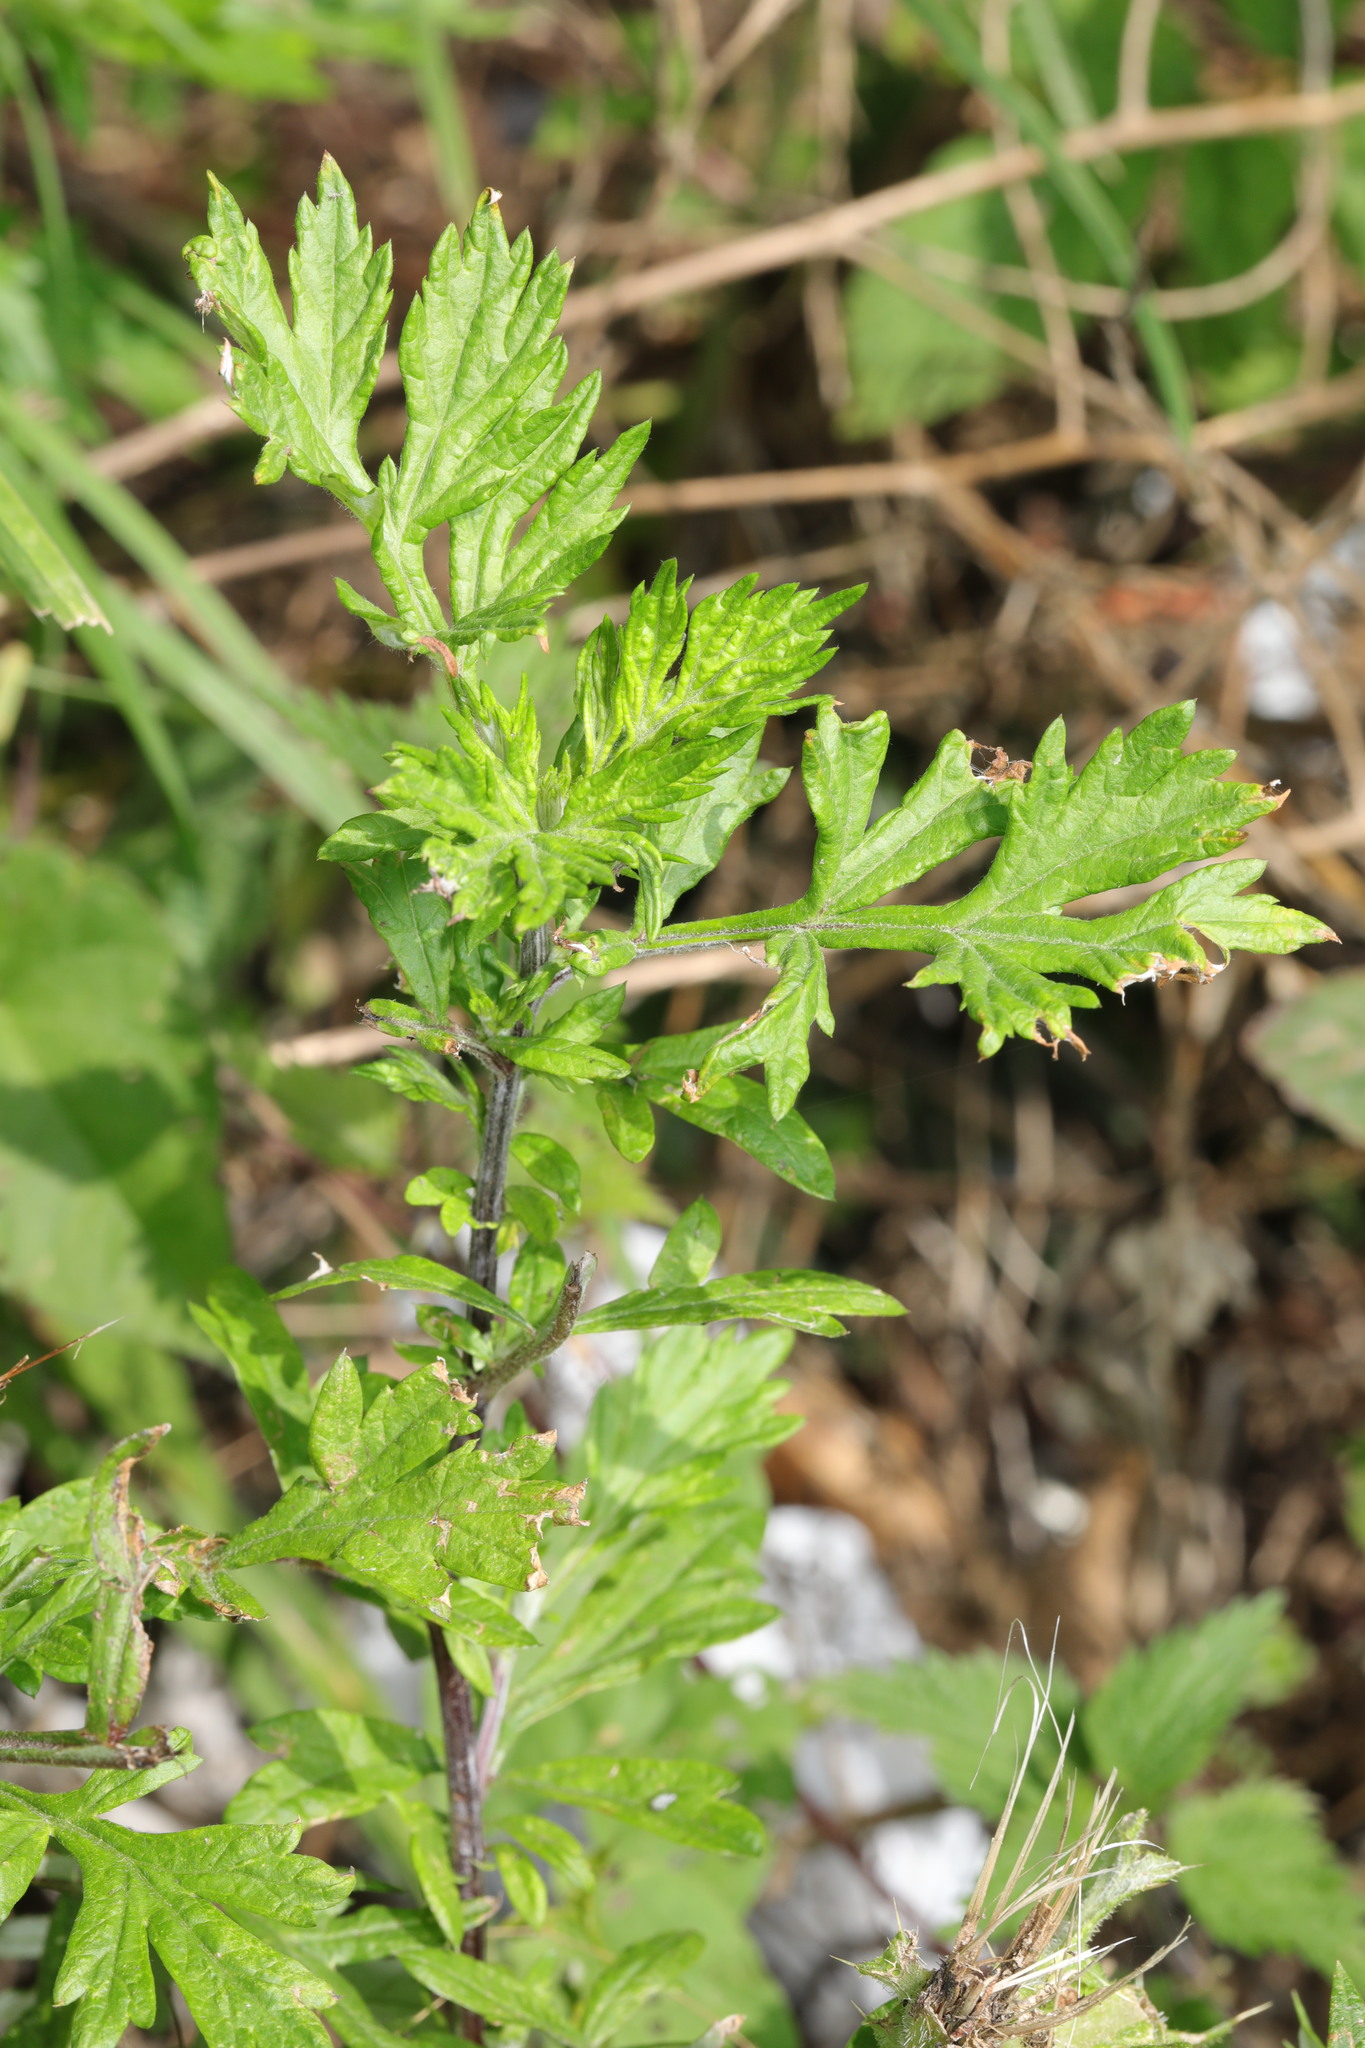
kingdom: Plantae
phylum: Tracheophyta
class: Magnoliopsida
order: Asterales
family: Asteraceae
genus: Artemisia
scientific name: Artemisia vulgaris
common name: Mugwort
